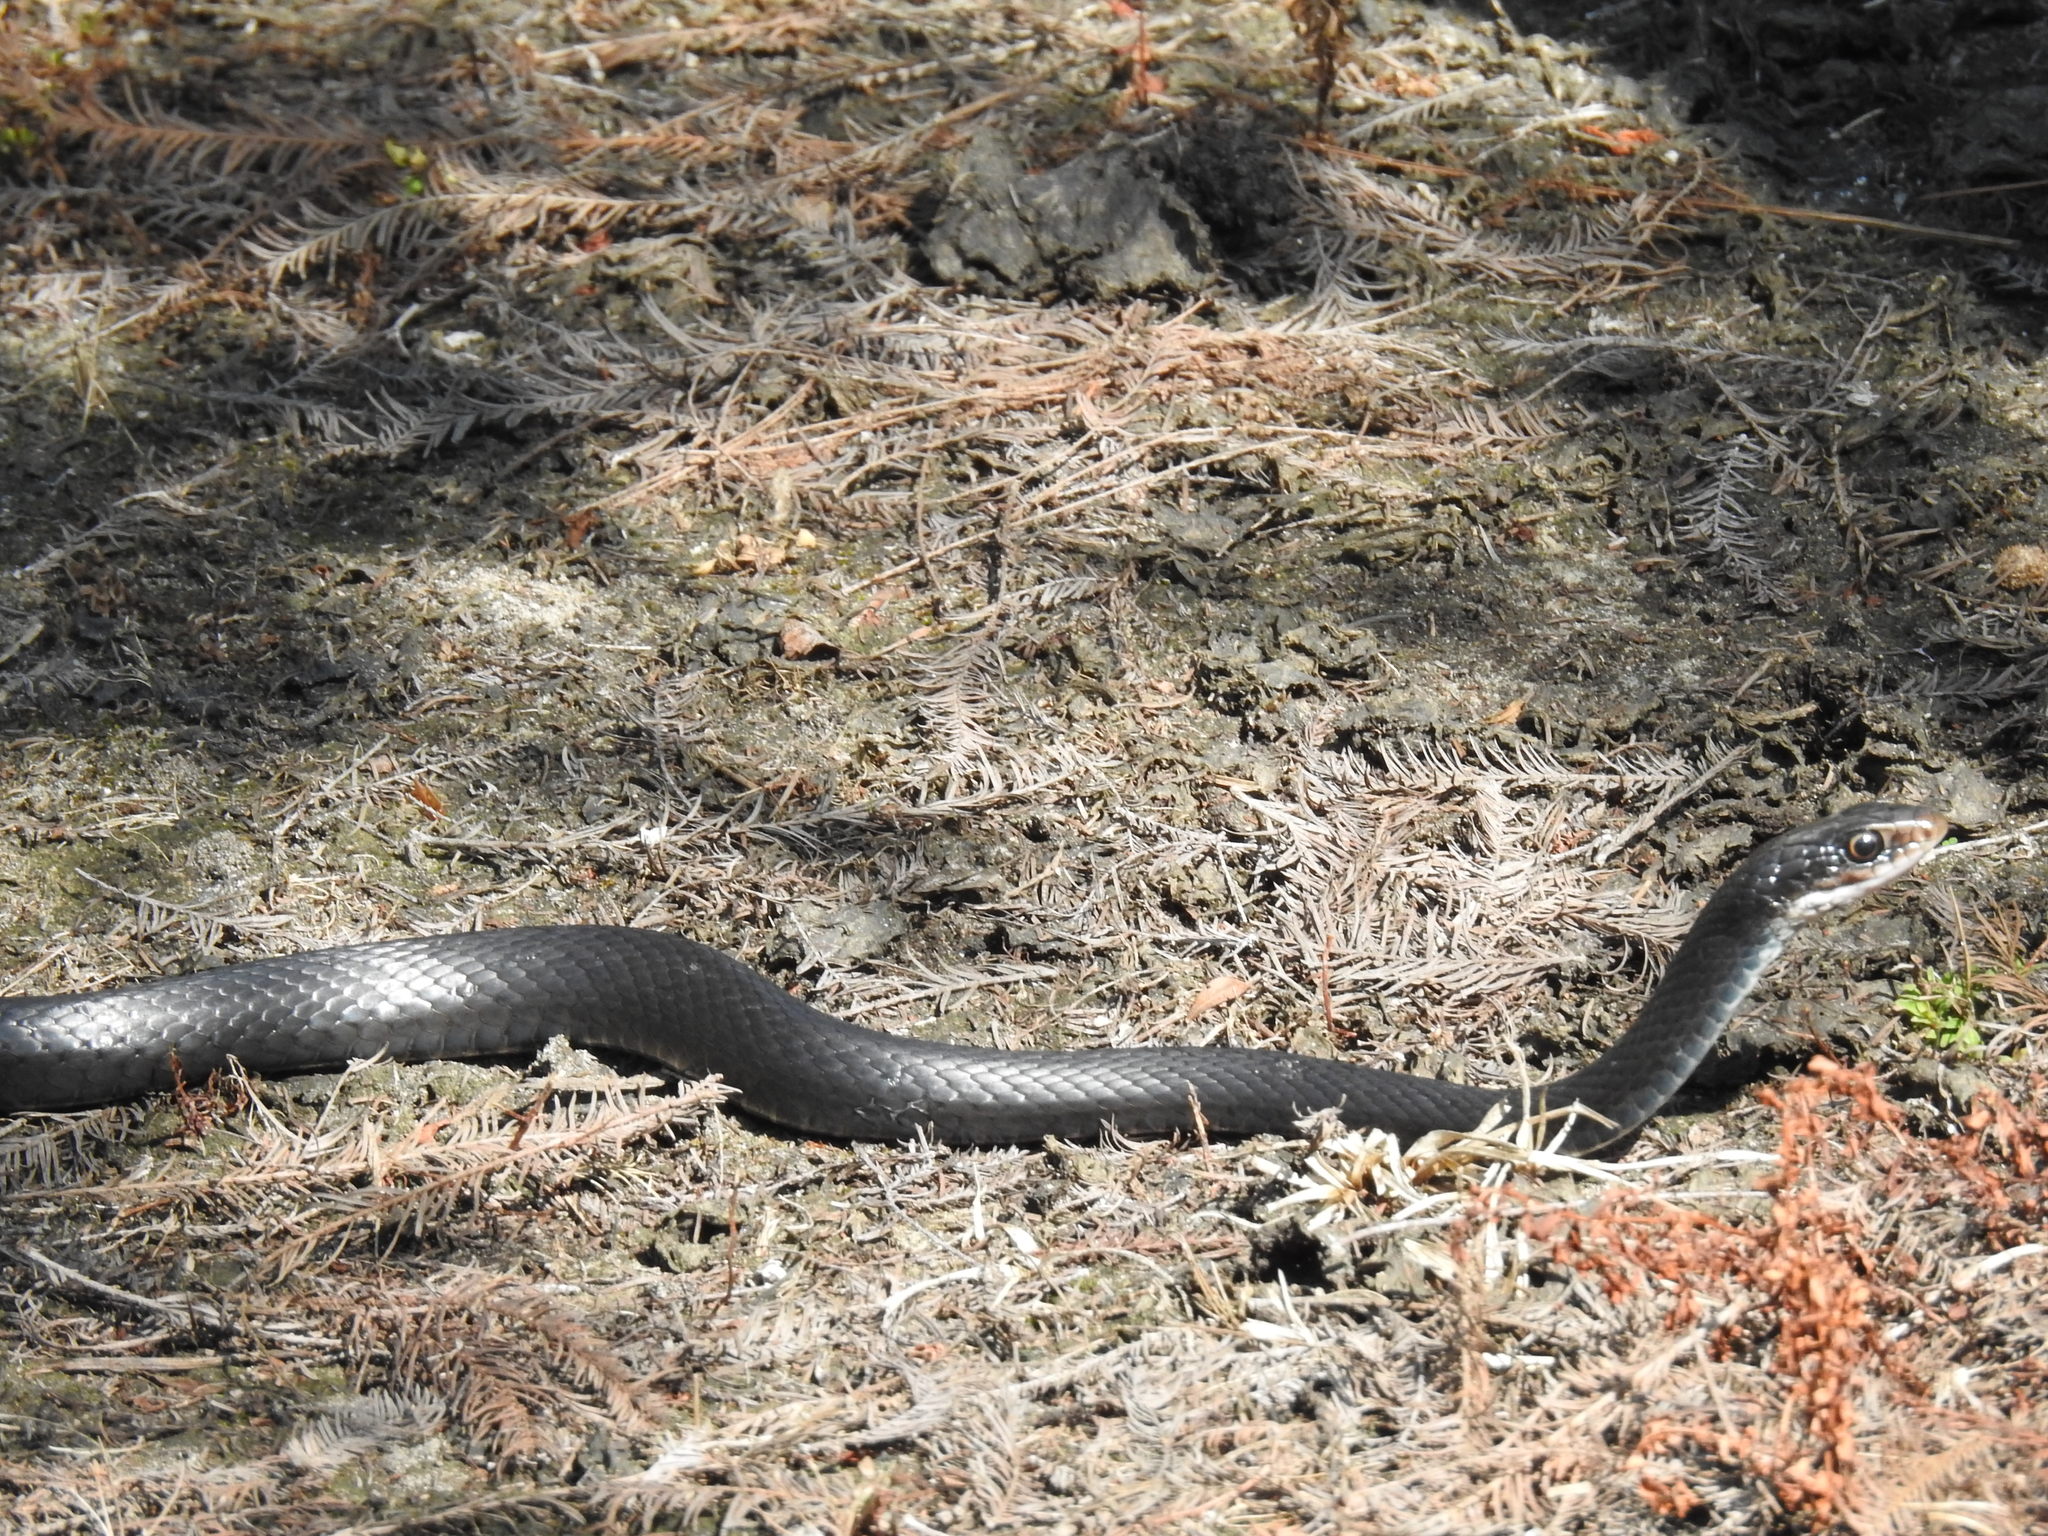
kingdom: Animalia
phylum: Chordata
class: Squamata
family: Colubridae
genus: Coluber
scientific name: Coluber constrictor
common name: Eastern racer
